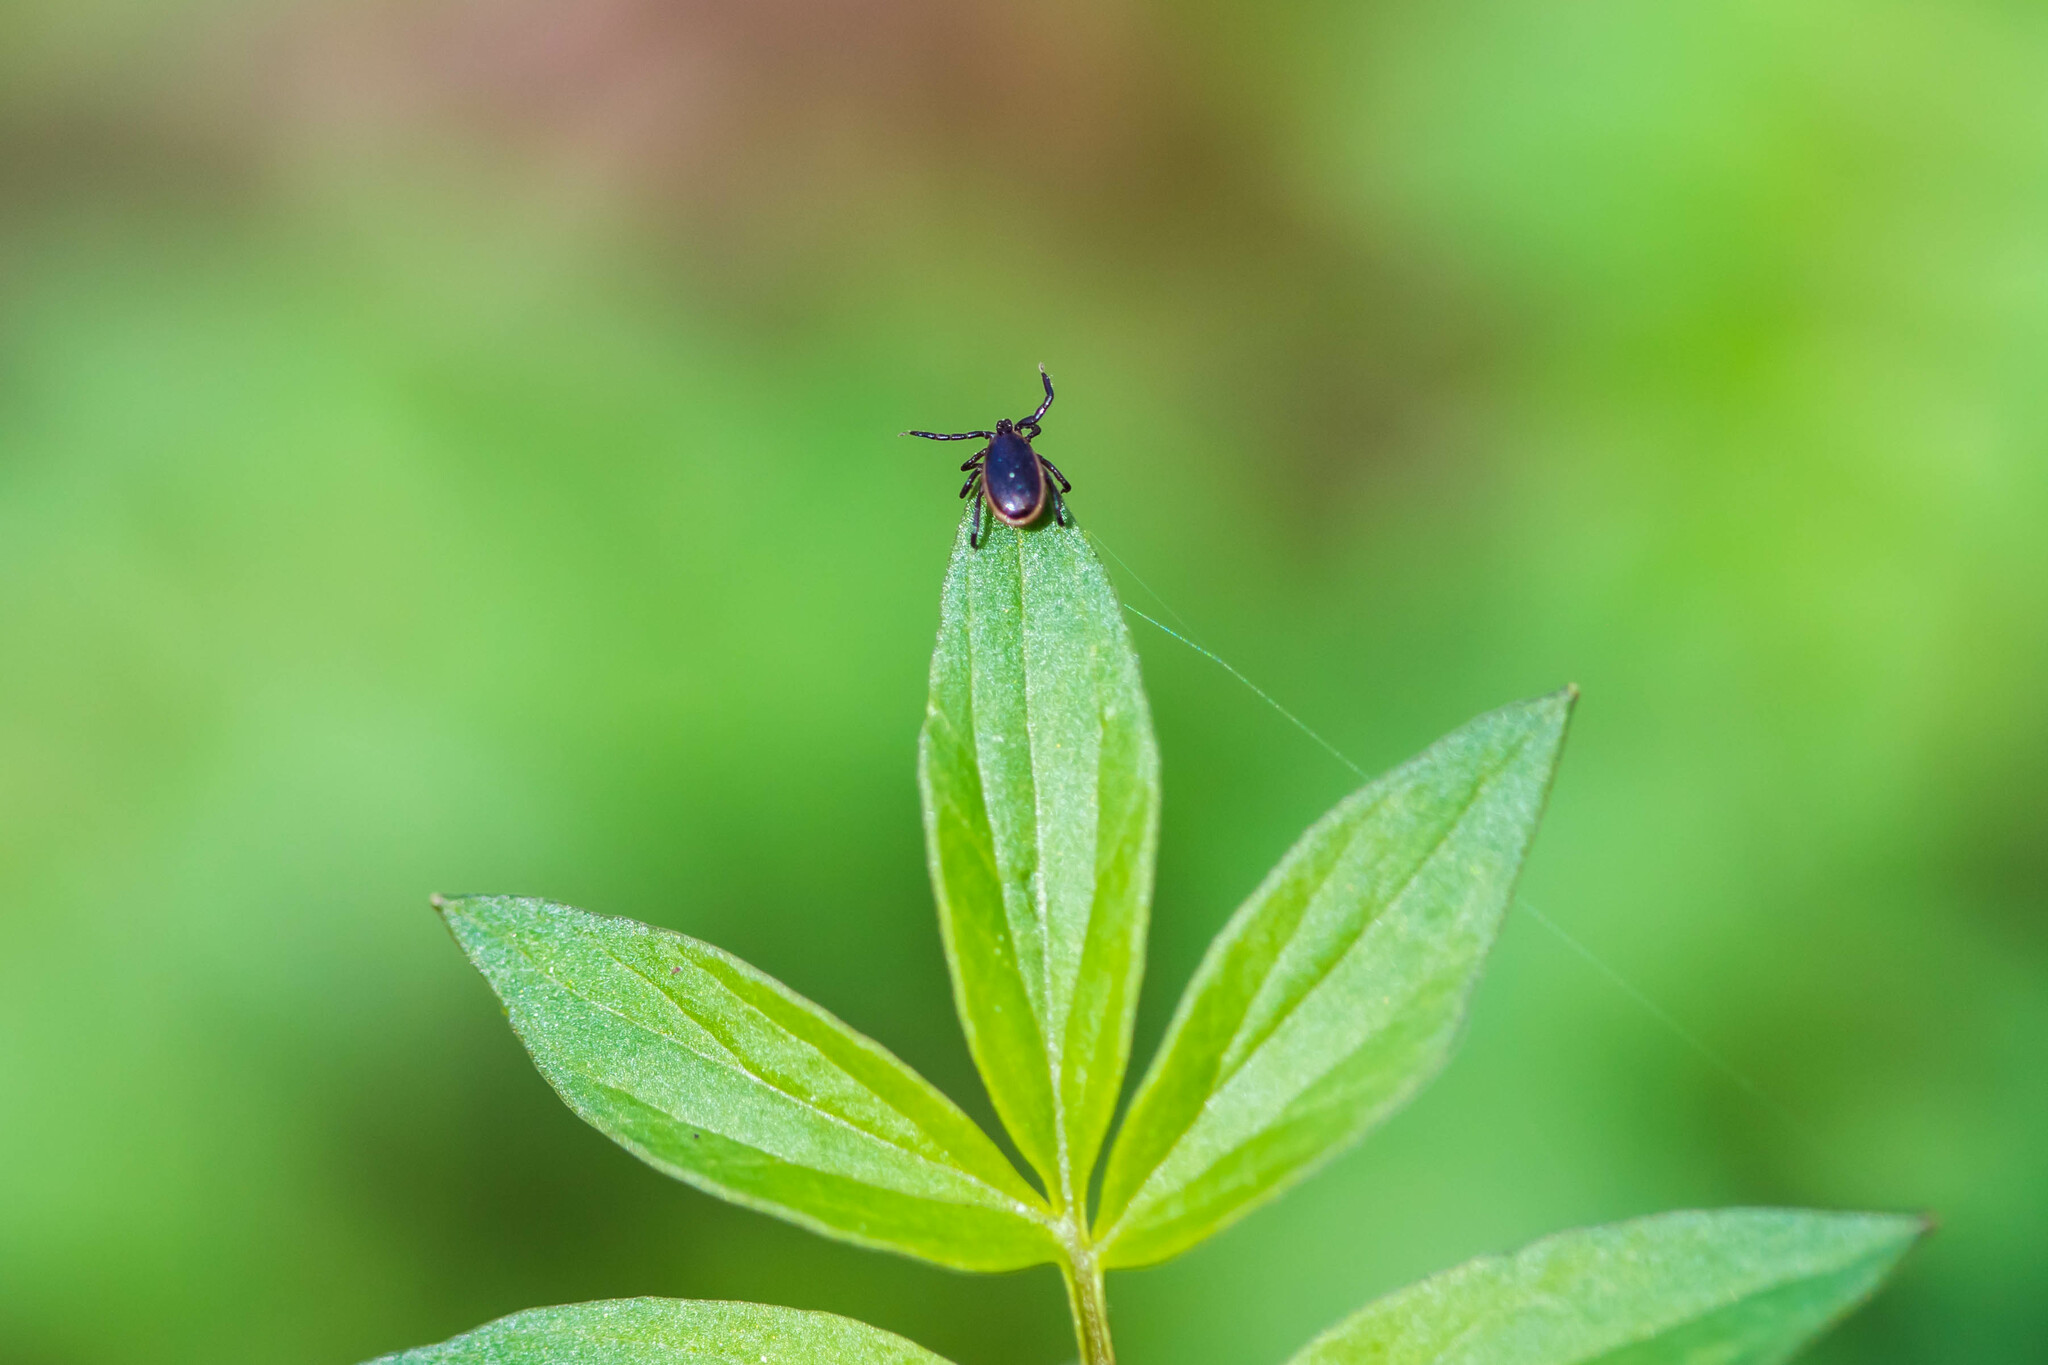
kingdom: Animalia
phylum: Arthropoda
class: Arachnida
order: Ixodida
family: Ixodidae
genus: Ixodes
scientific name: Ixodes scapularis
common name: Black legged tick
